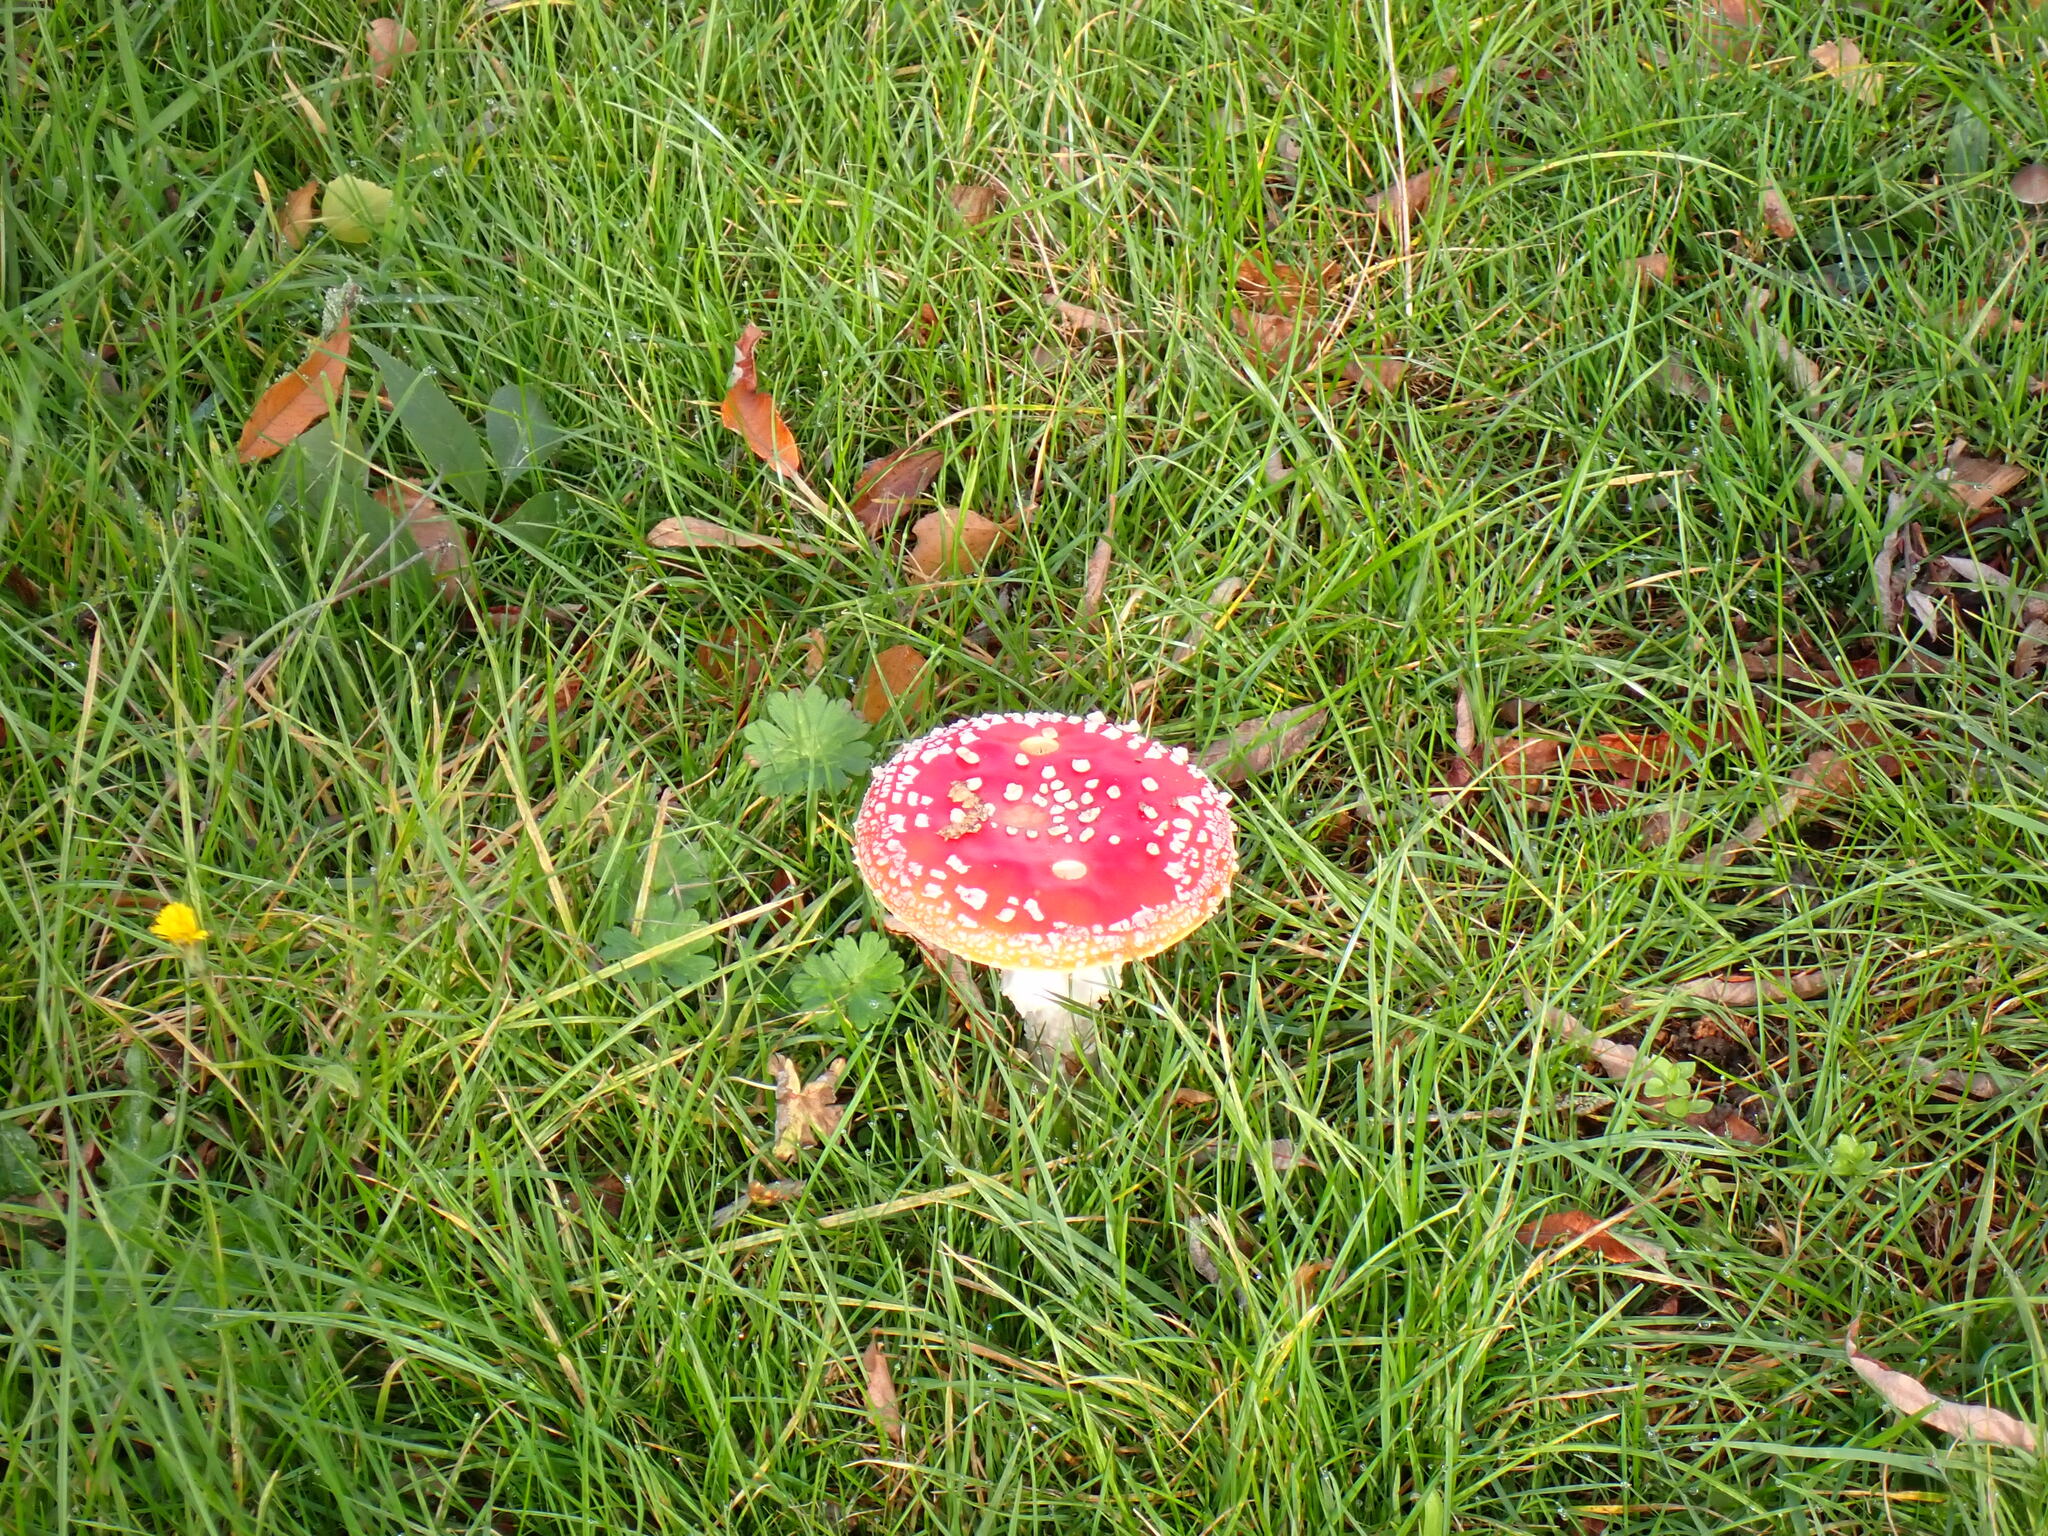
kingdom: Fungi
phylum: Basidiomycota
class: Agaricomycetes
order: Agaricales
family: Amanitaceae
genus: Amanita
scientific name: Amanita muscaria
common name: Fly agaric
